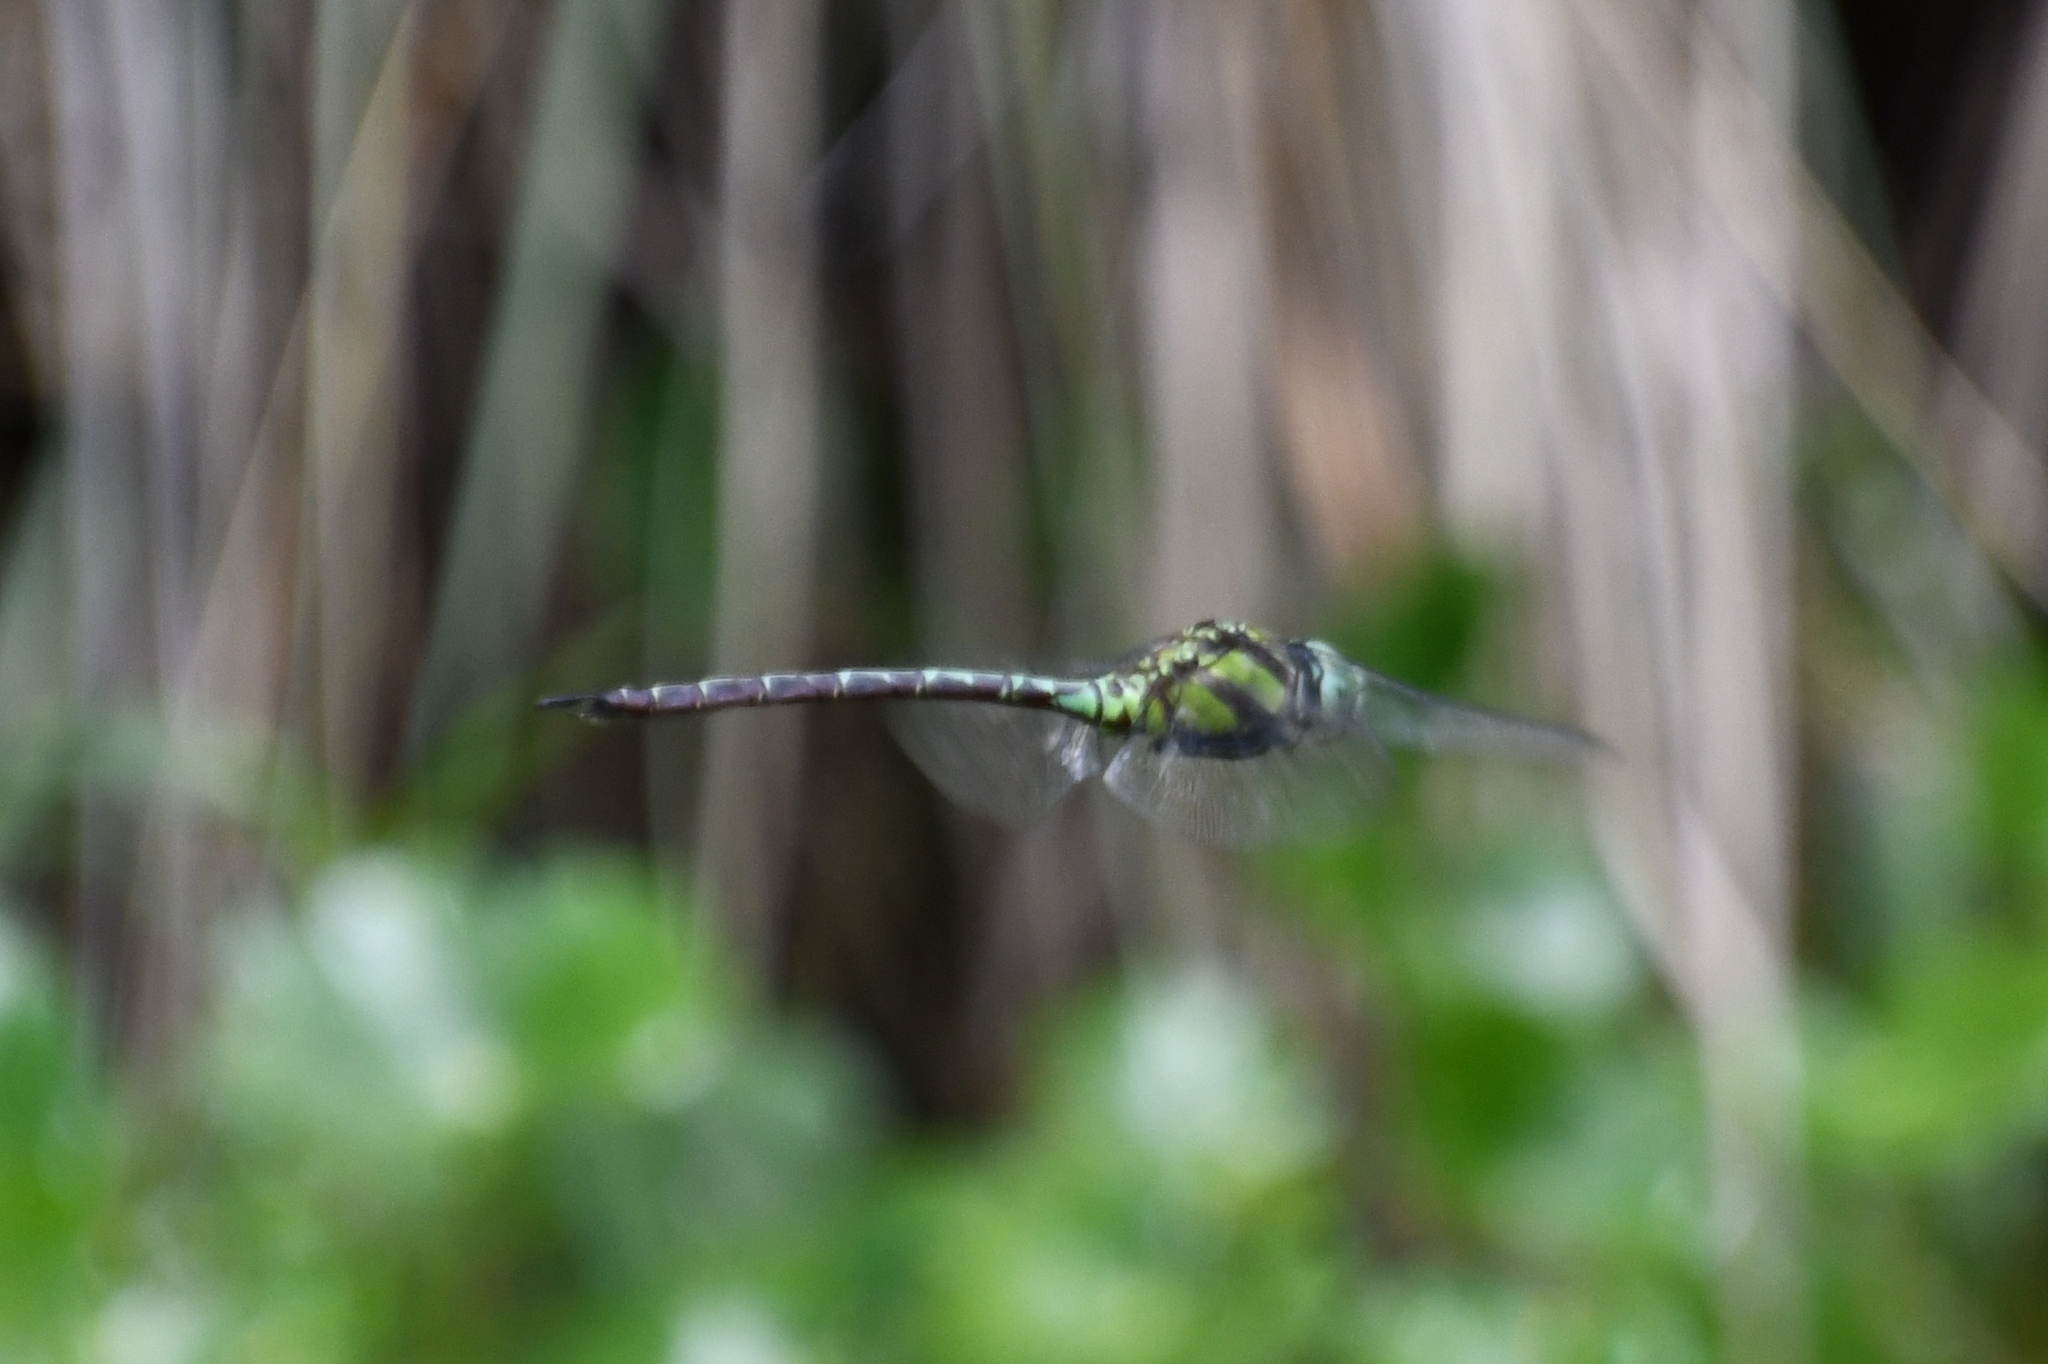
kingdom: Animalia
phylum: Arthropoda
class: Insecta
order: Odonata
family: Aeshnidae
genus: Remartinia
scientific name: Remartinia luteipennis
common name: Malachite darner
